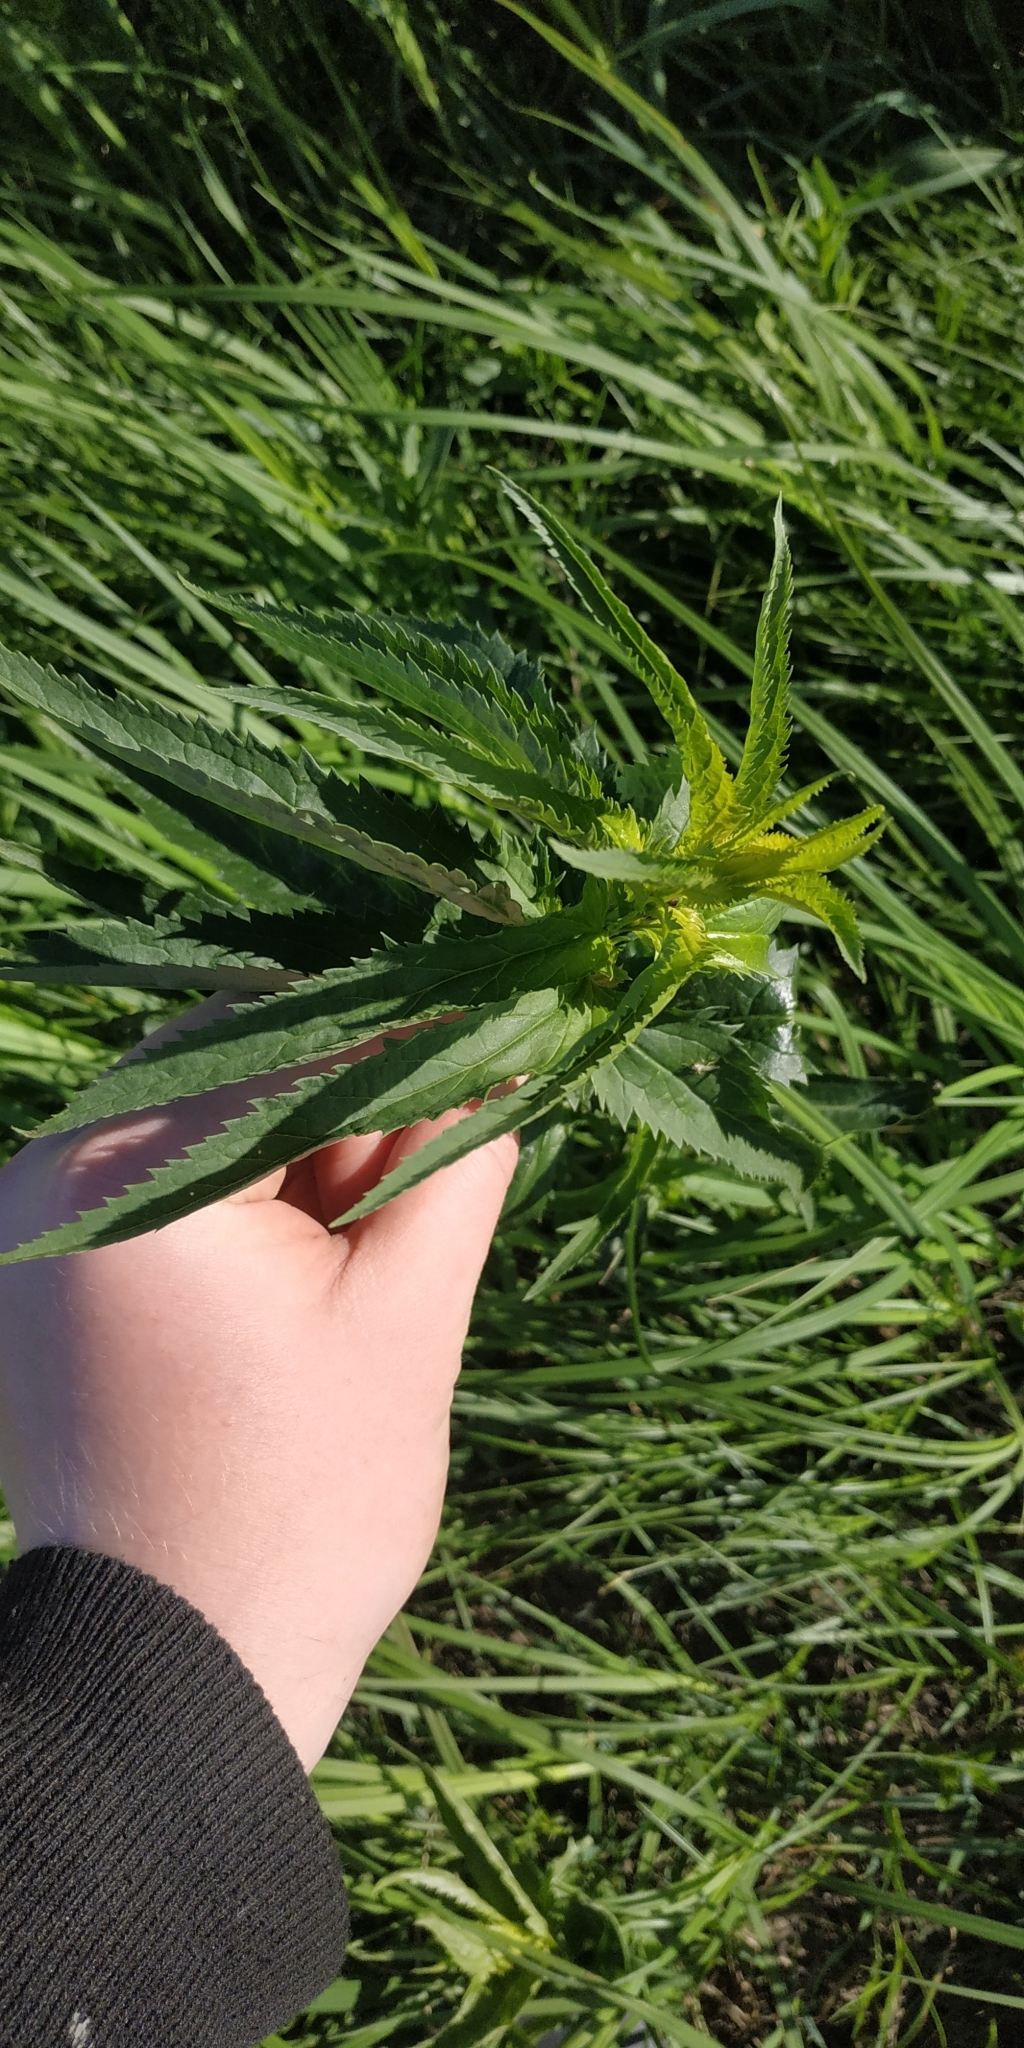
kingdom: Plantae
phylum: Tracheophyta
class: Magnoliopsida
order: Lamiales
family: Plantaginaceae
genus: Veronica
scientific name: Veronica longifolia
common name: Garden speedwell
